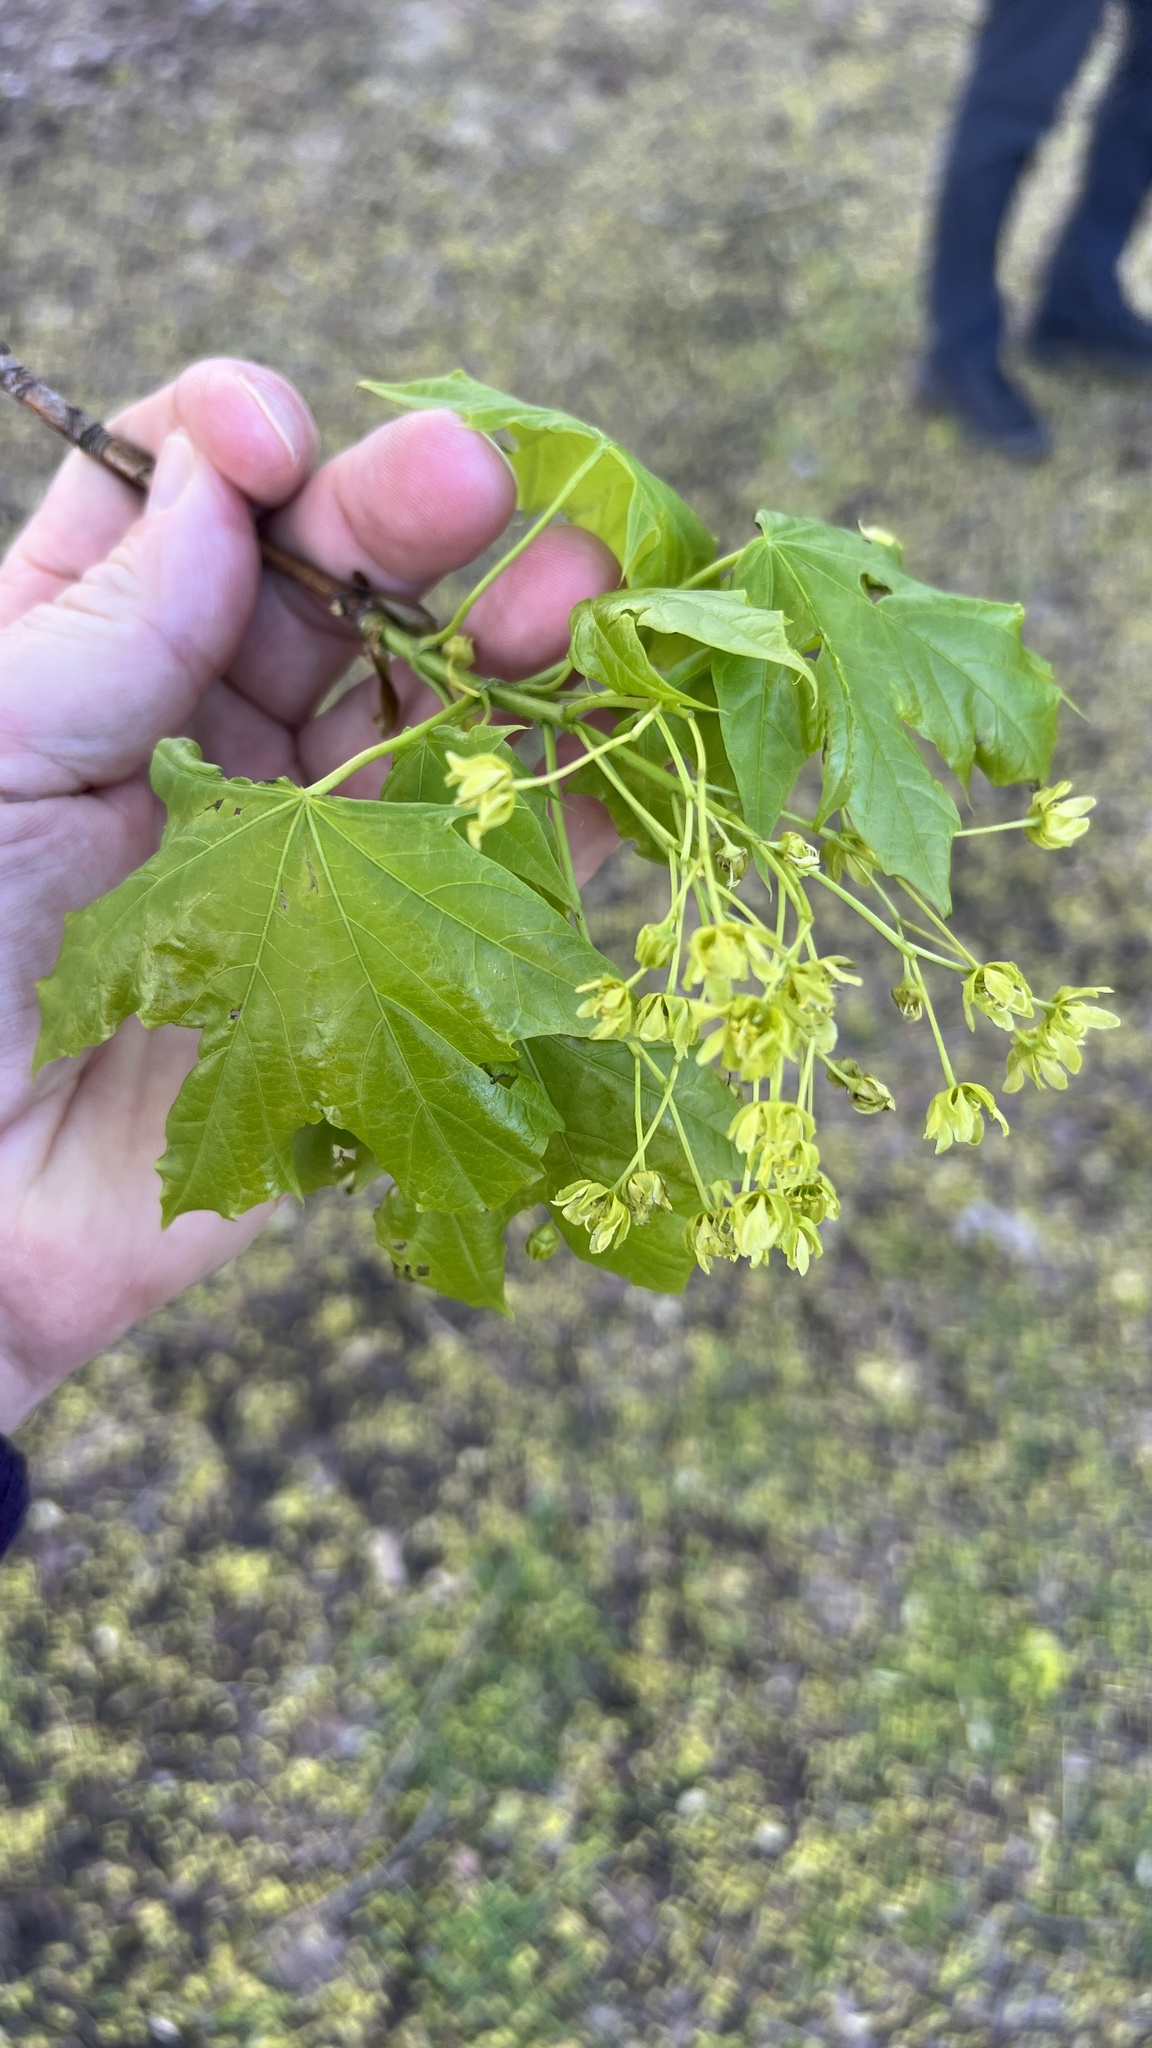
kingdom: Plantae
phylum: Tracheophyta
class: Magnoliopsida
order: Sapindales
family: Sapindaceae
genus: Acer
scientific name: Acer platanoides
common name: Norway maple
